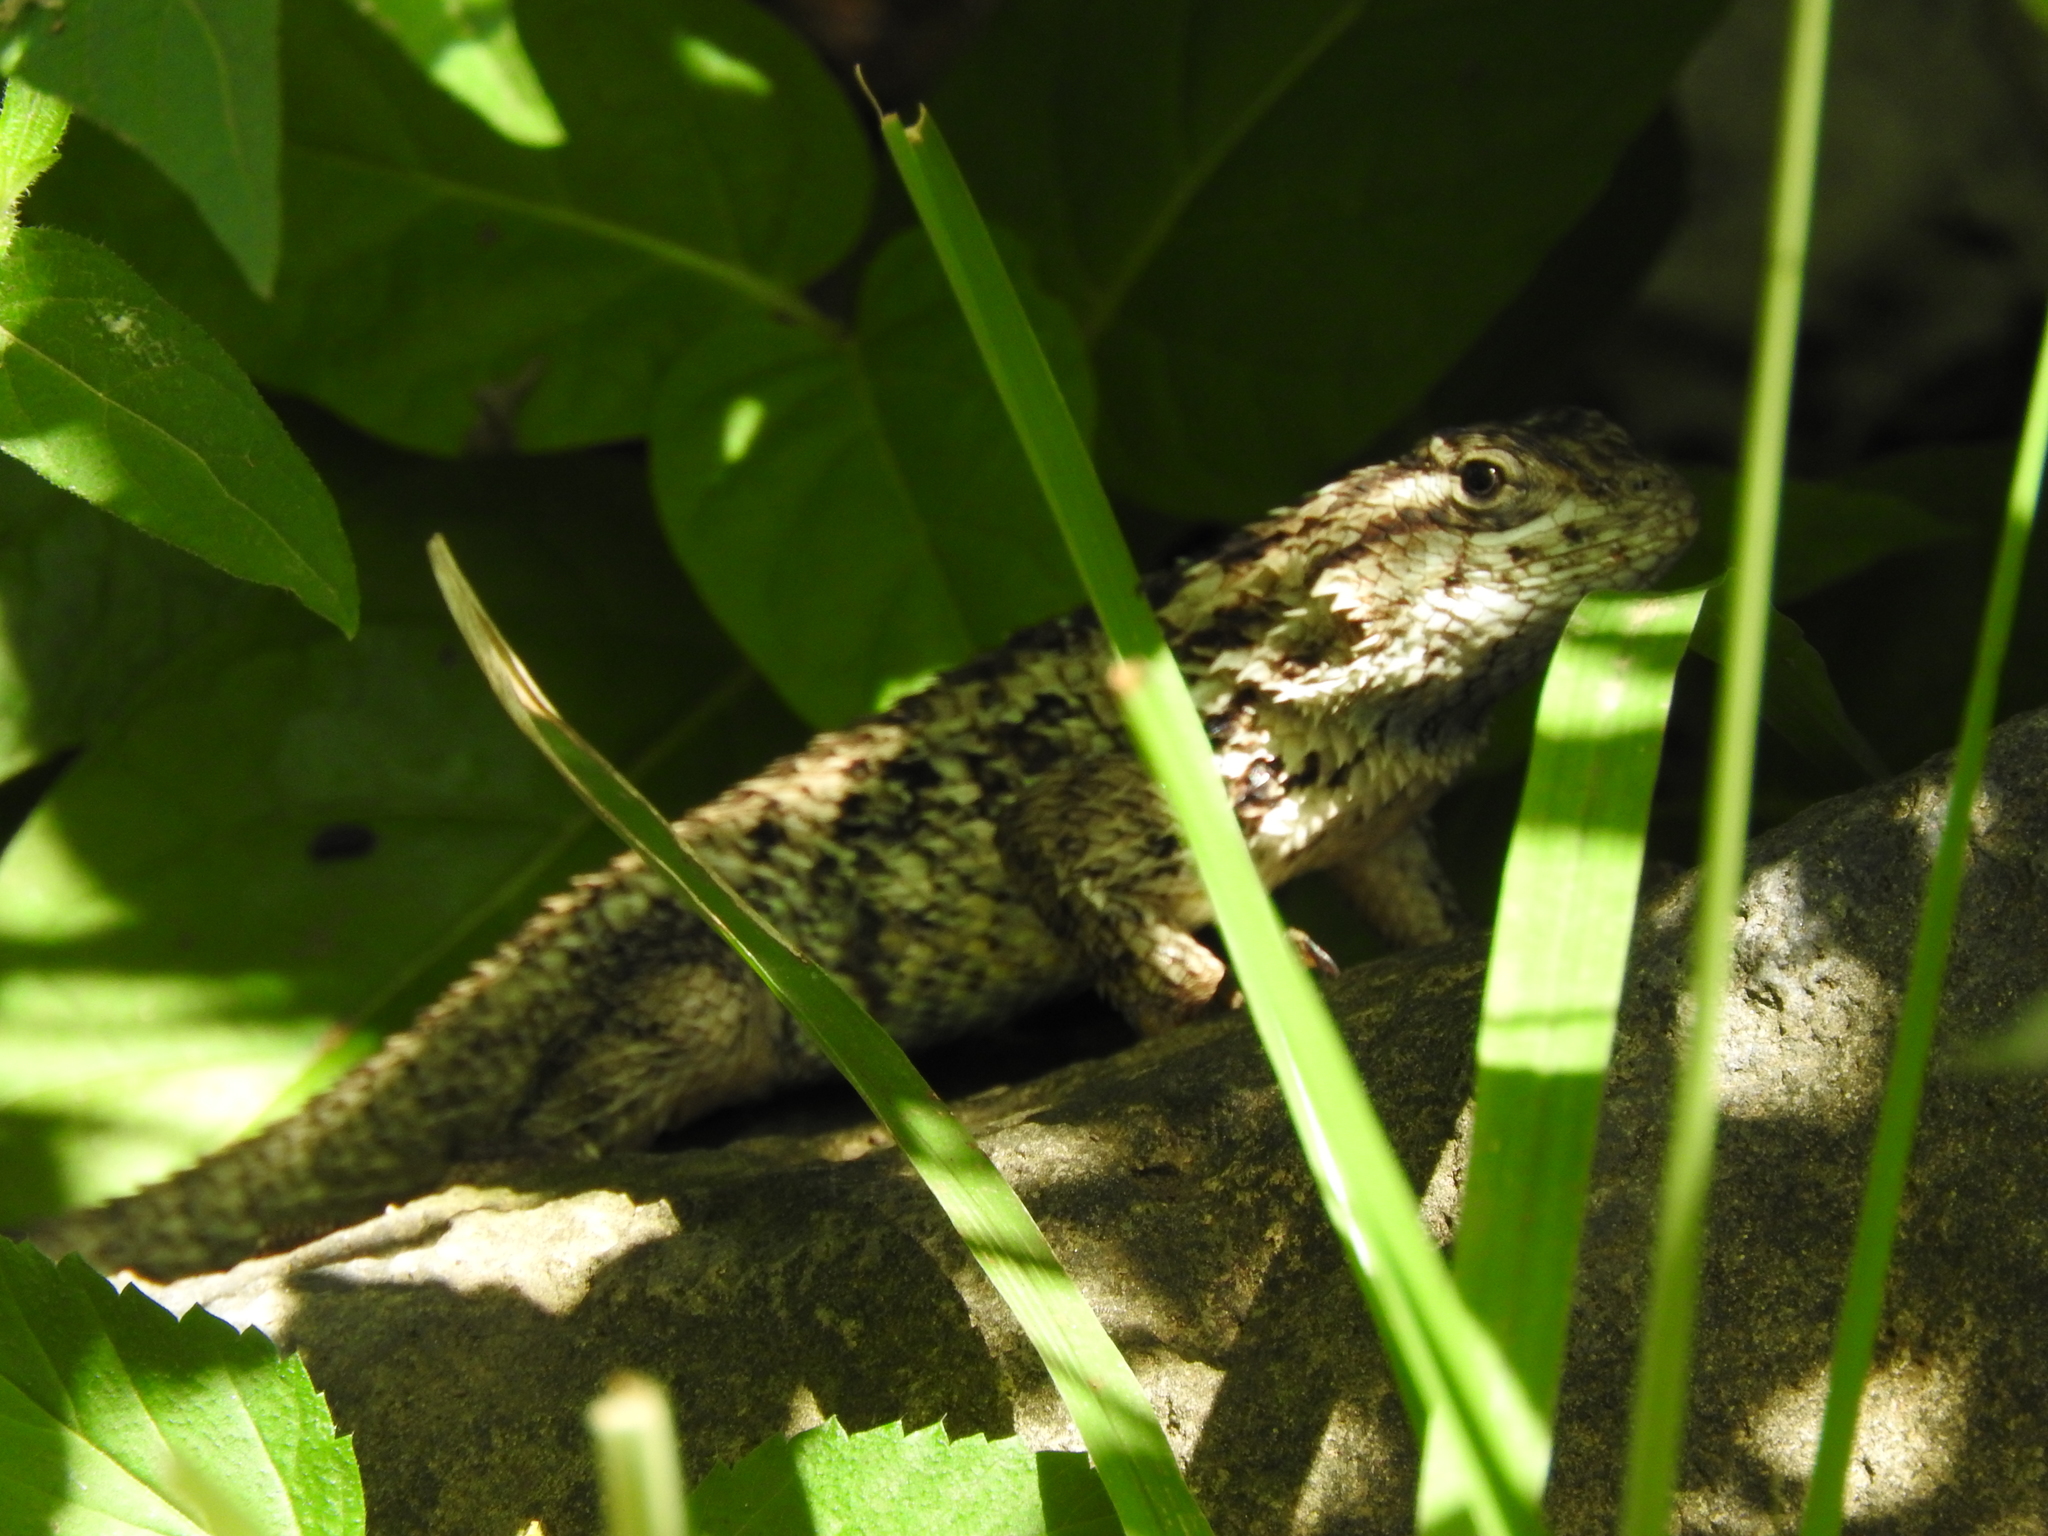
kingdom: Animalia
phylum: Chordata
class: Squamata
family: Phrynosomatidae
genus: Sceloporus
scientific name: Sceloporus spinosus
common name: Blue-spotted spiny lizard [caeruleopunctatus]
